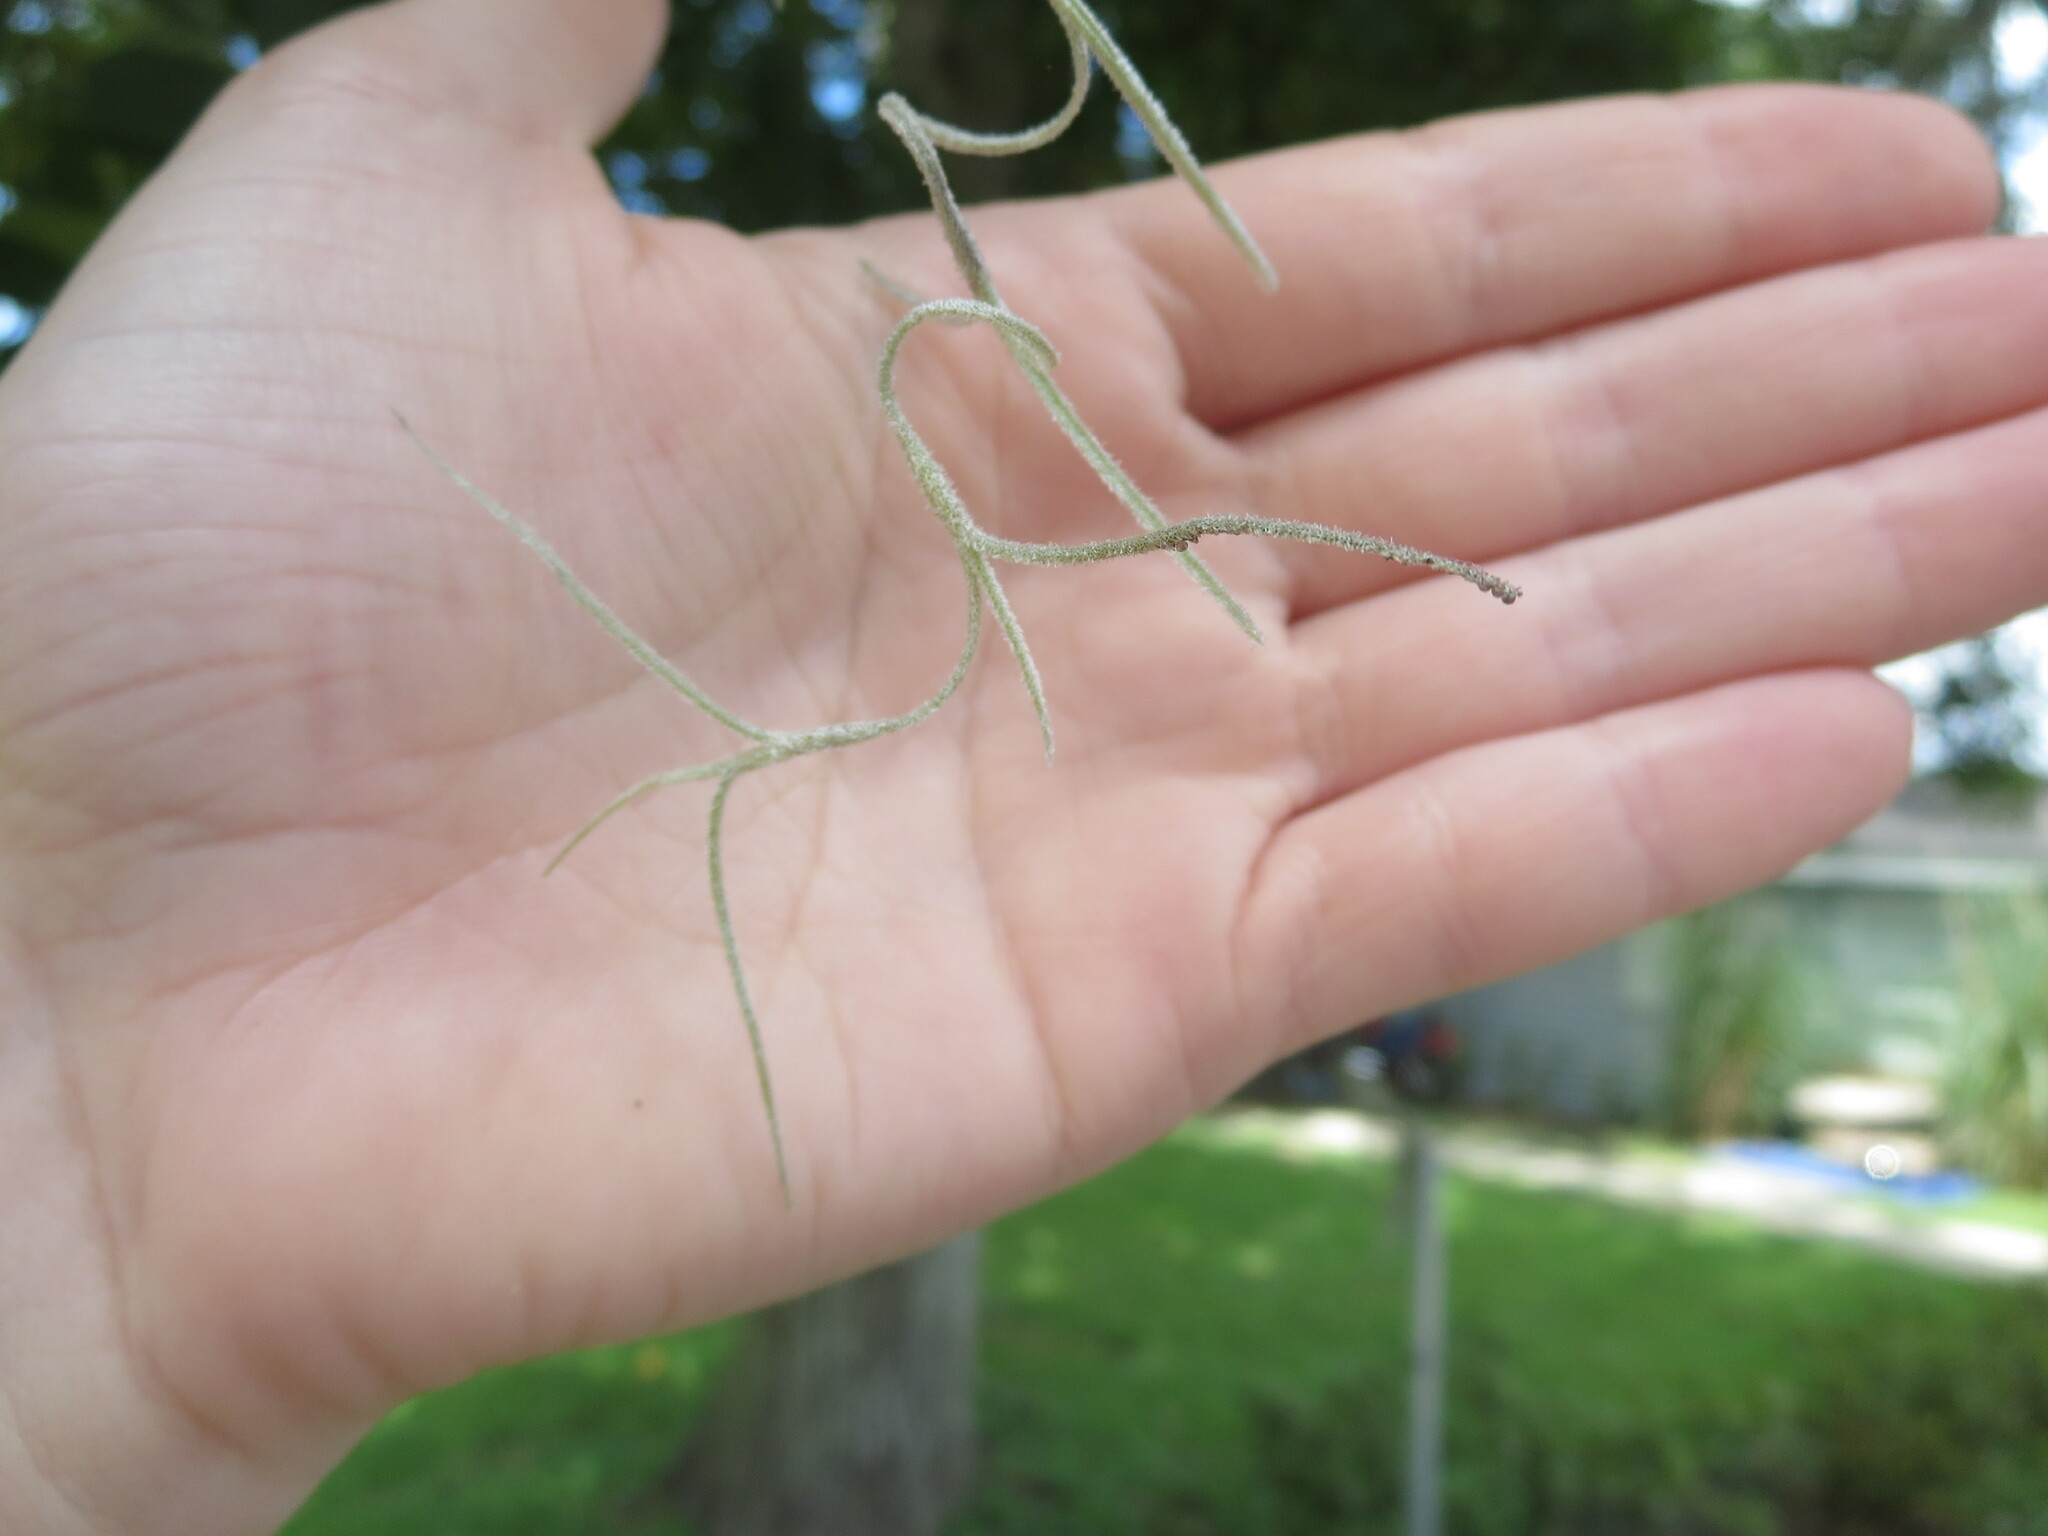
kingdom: Plantae
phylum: Tracheophyta
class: Liliopsida
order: Poales
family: Bromeliaceae
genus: Tillandsia
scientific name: Tillandsia usneoides
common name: Spanish moss
